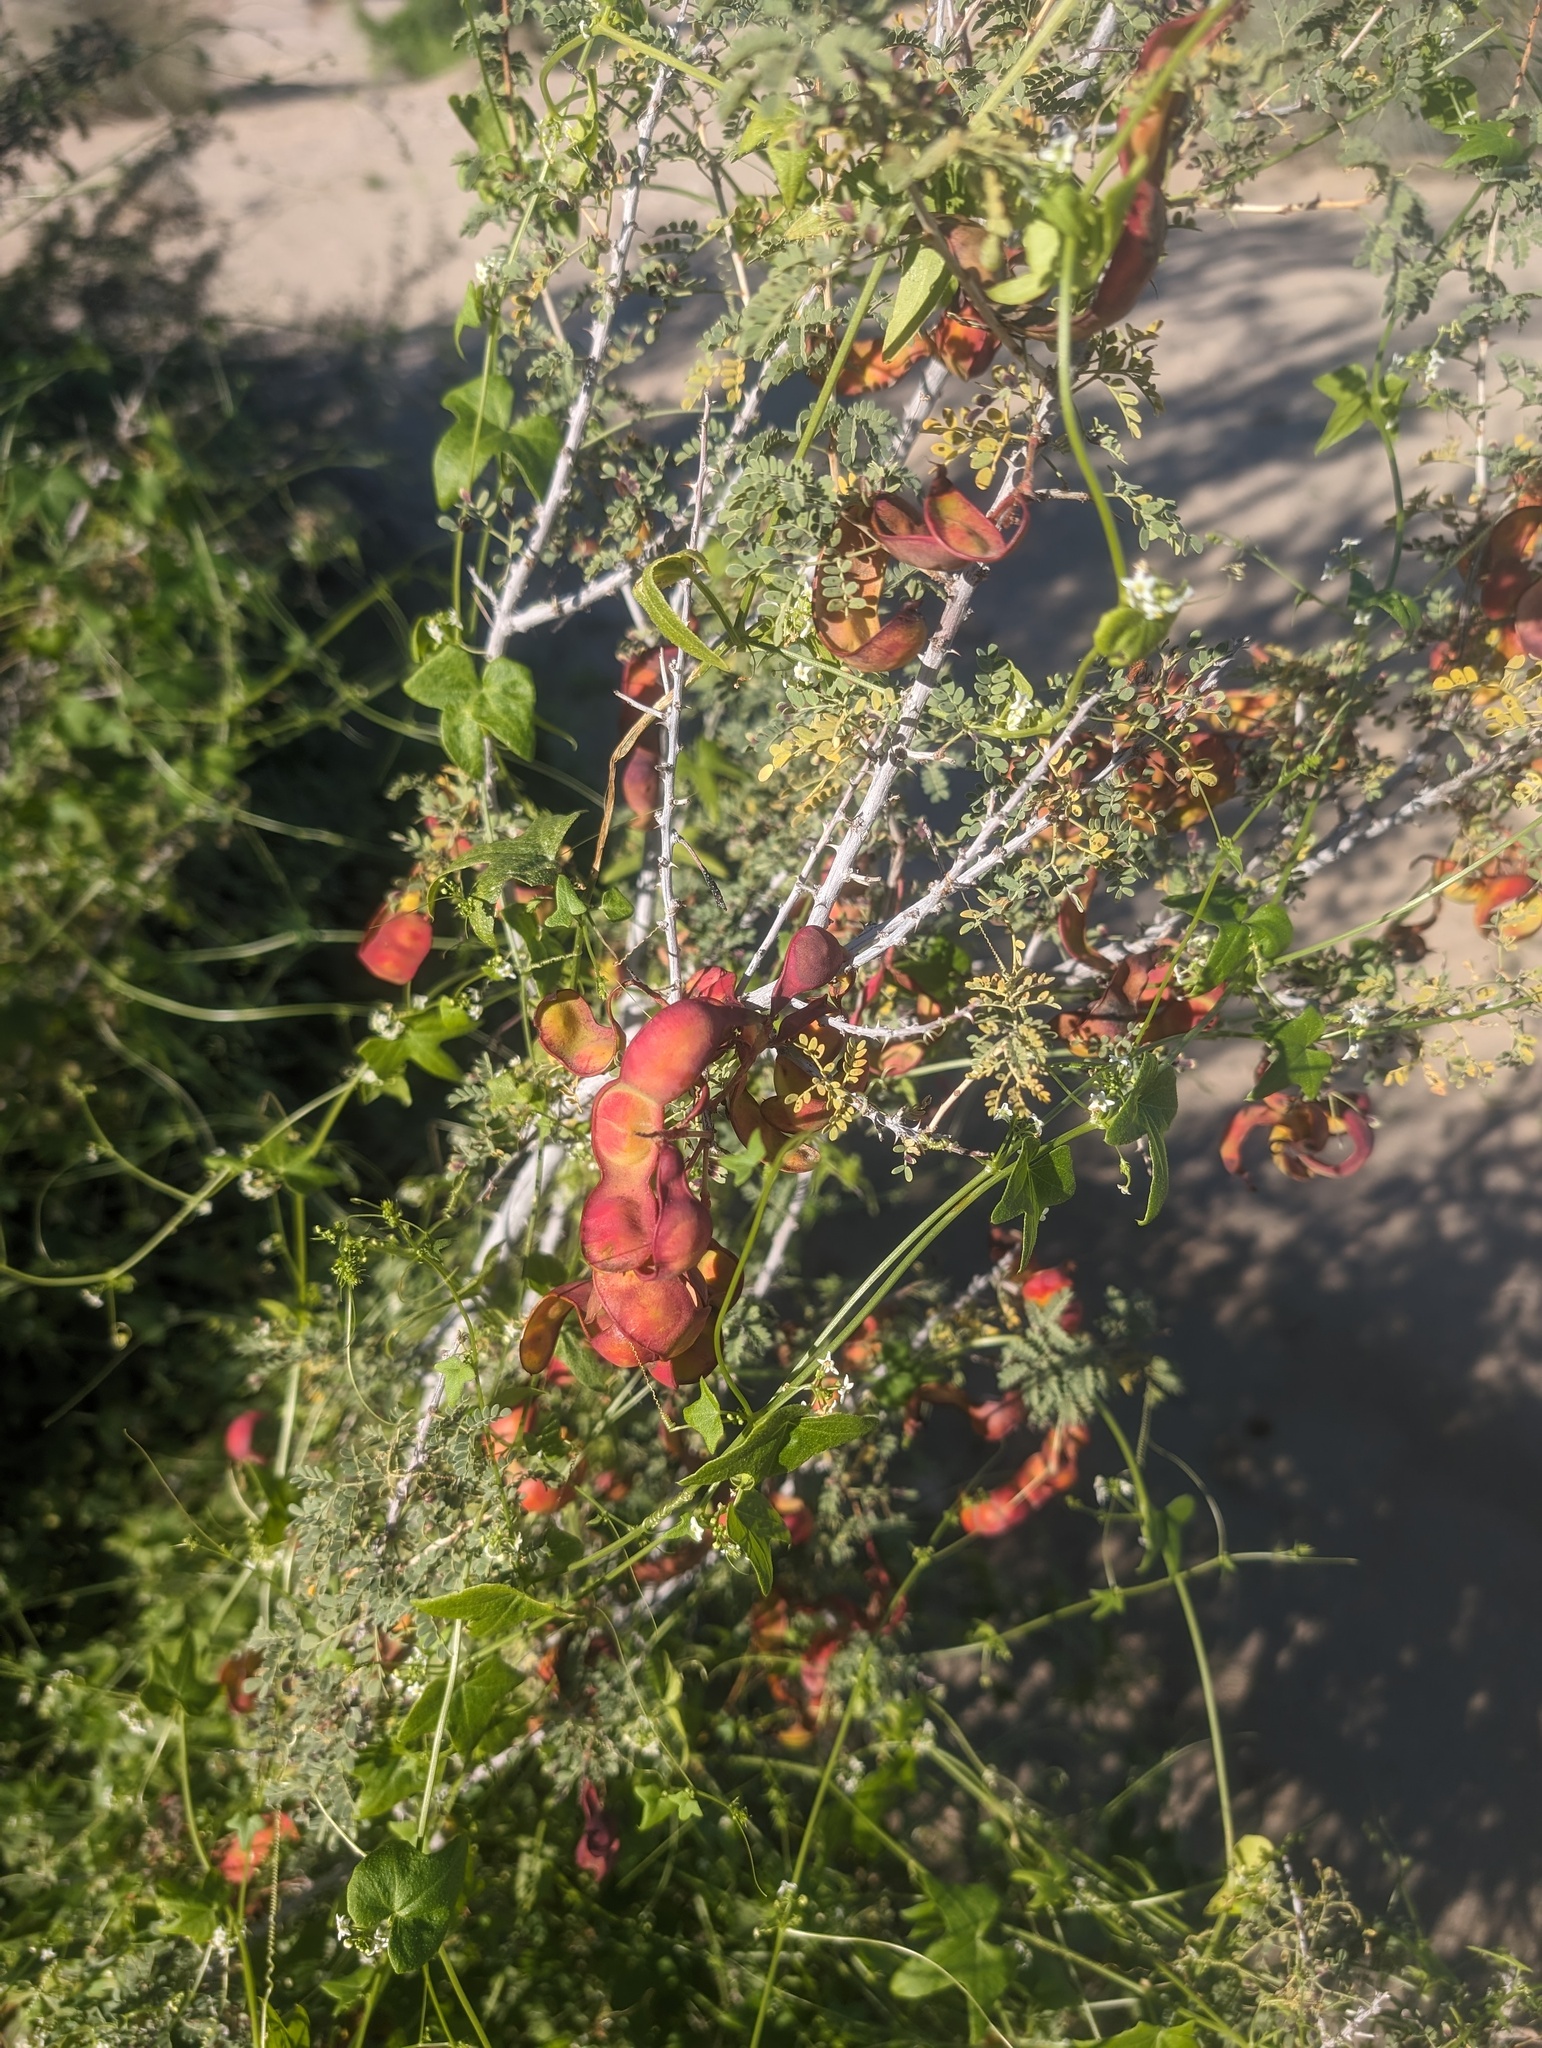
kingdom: Plantae
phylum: Tracheophyta
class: Magnoliopsida
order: Fabales
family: Fabaceae
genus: Senegalia
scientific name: Senegalia greggii
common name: Texas-mimosa
